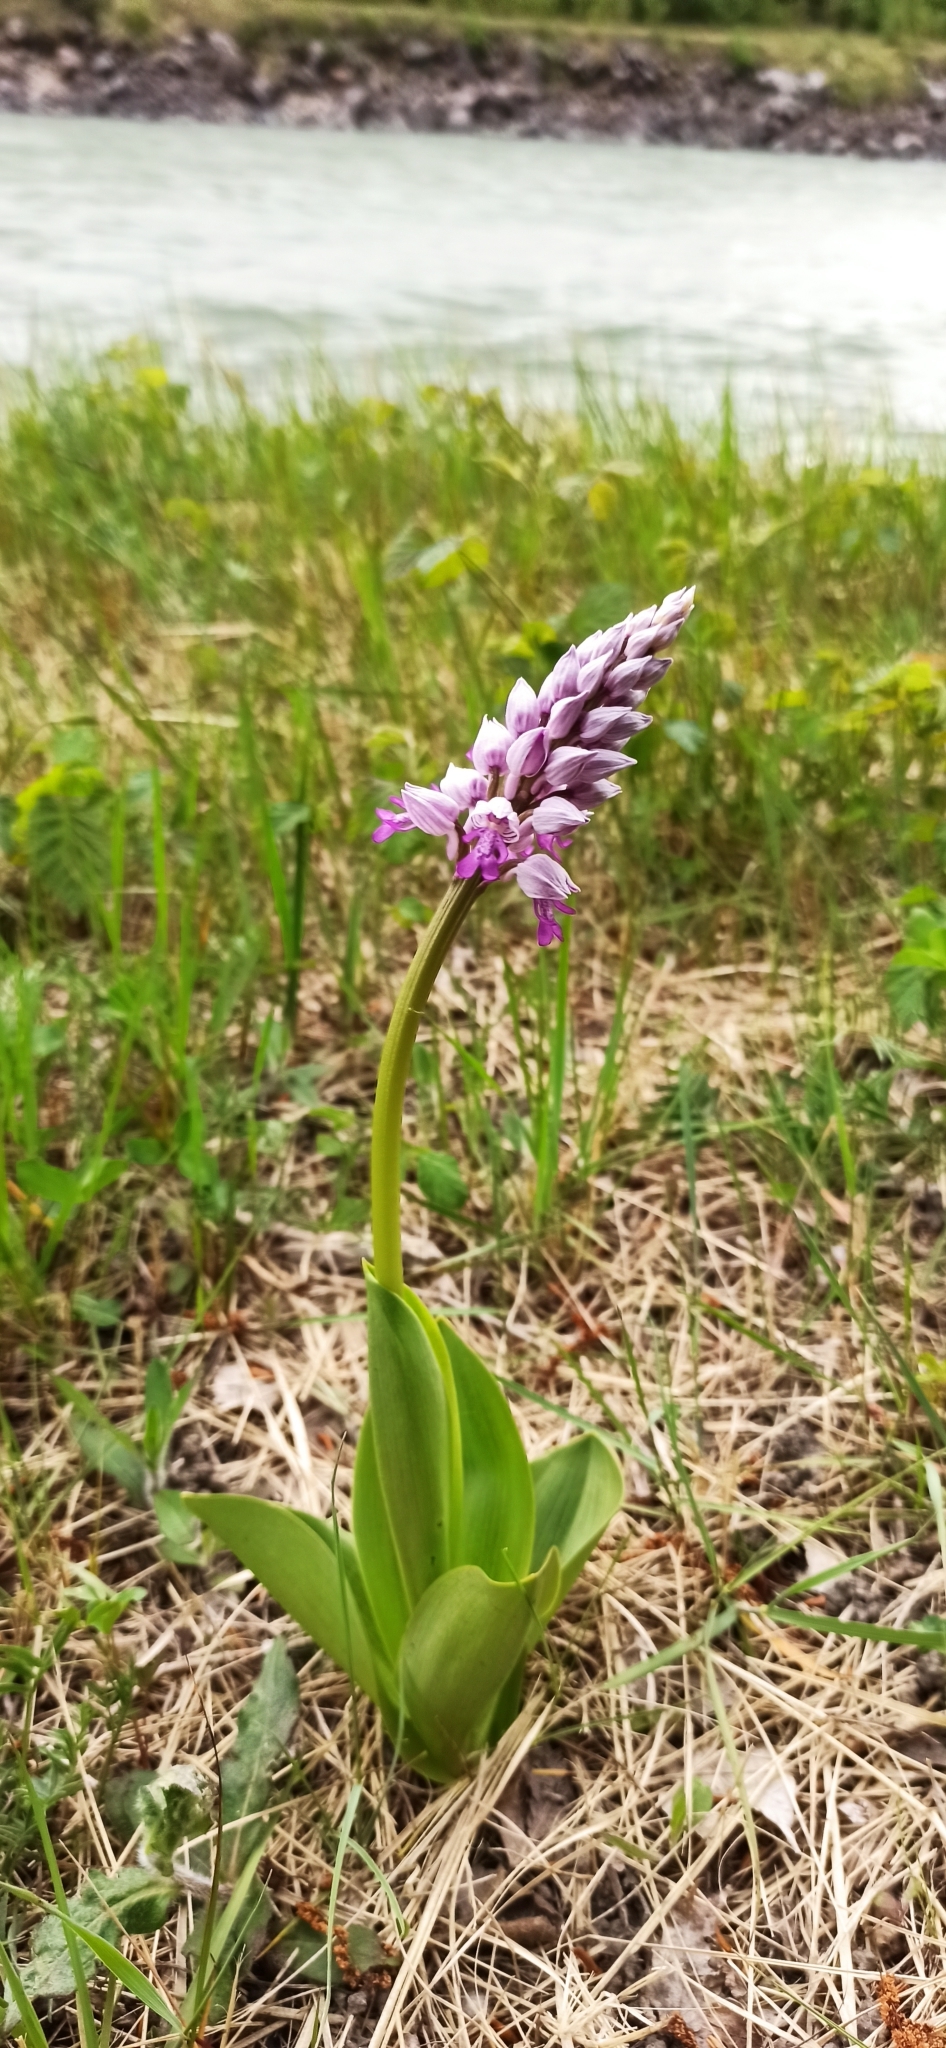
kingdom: Plantae
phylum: Tracheophyta
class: Liliopsida
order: Asparagales
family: Orchidaceae
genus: Orchis
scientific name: Orchis militaris
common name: Military orchid
